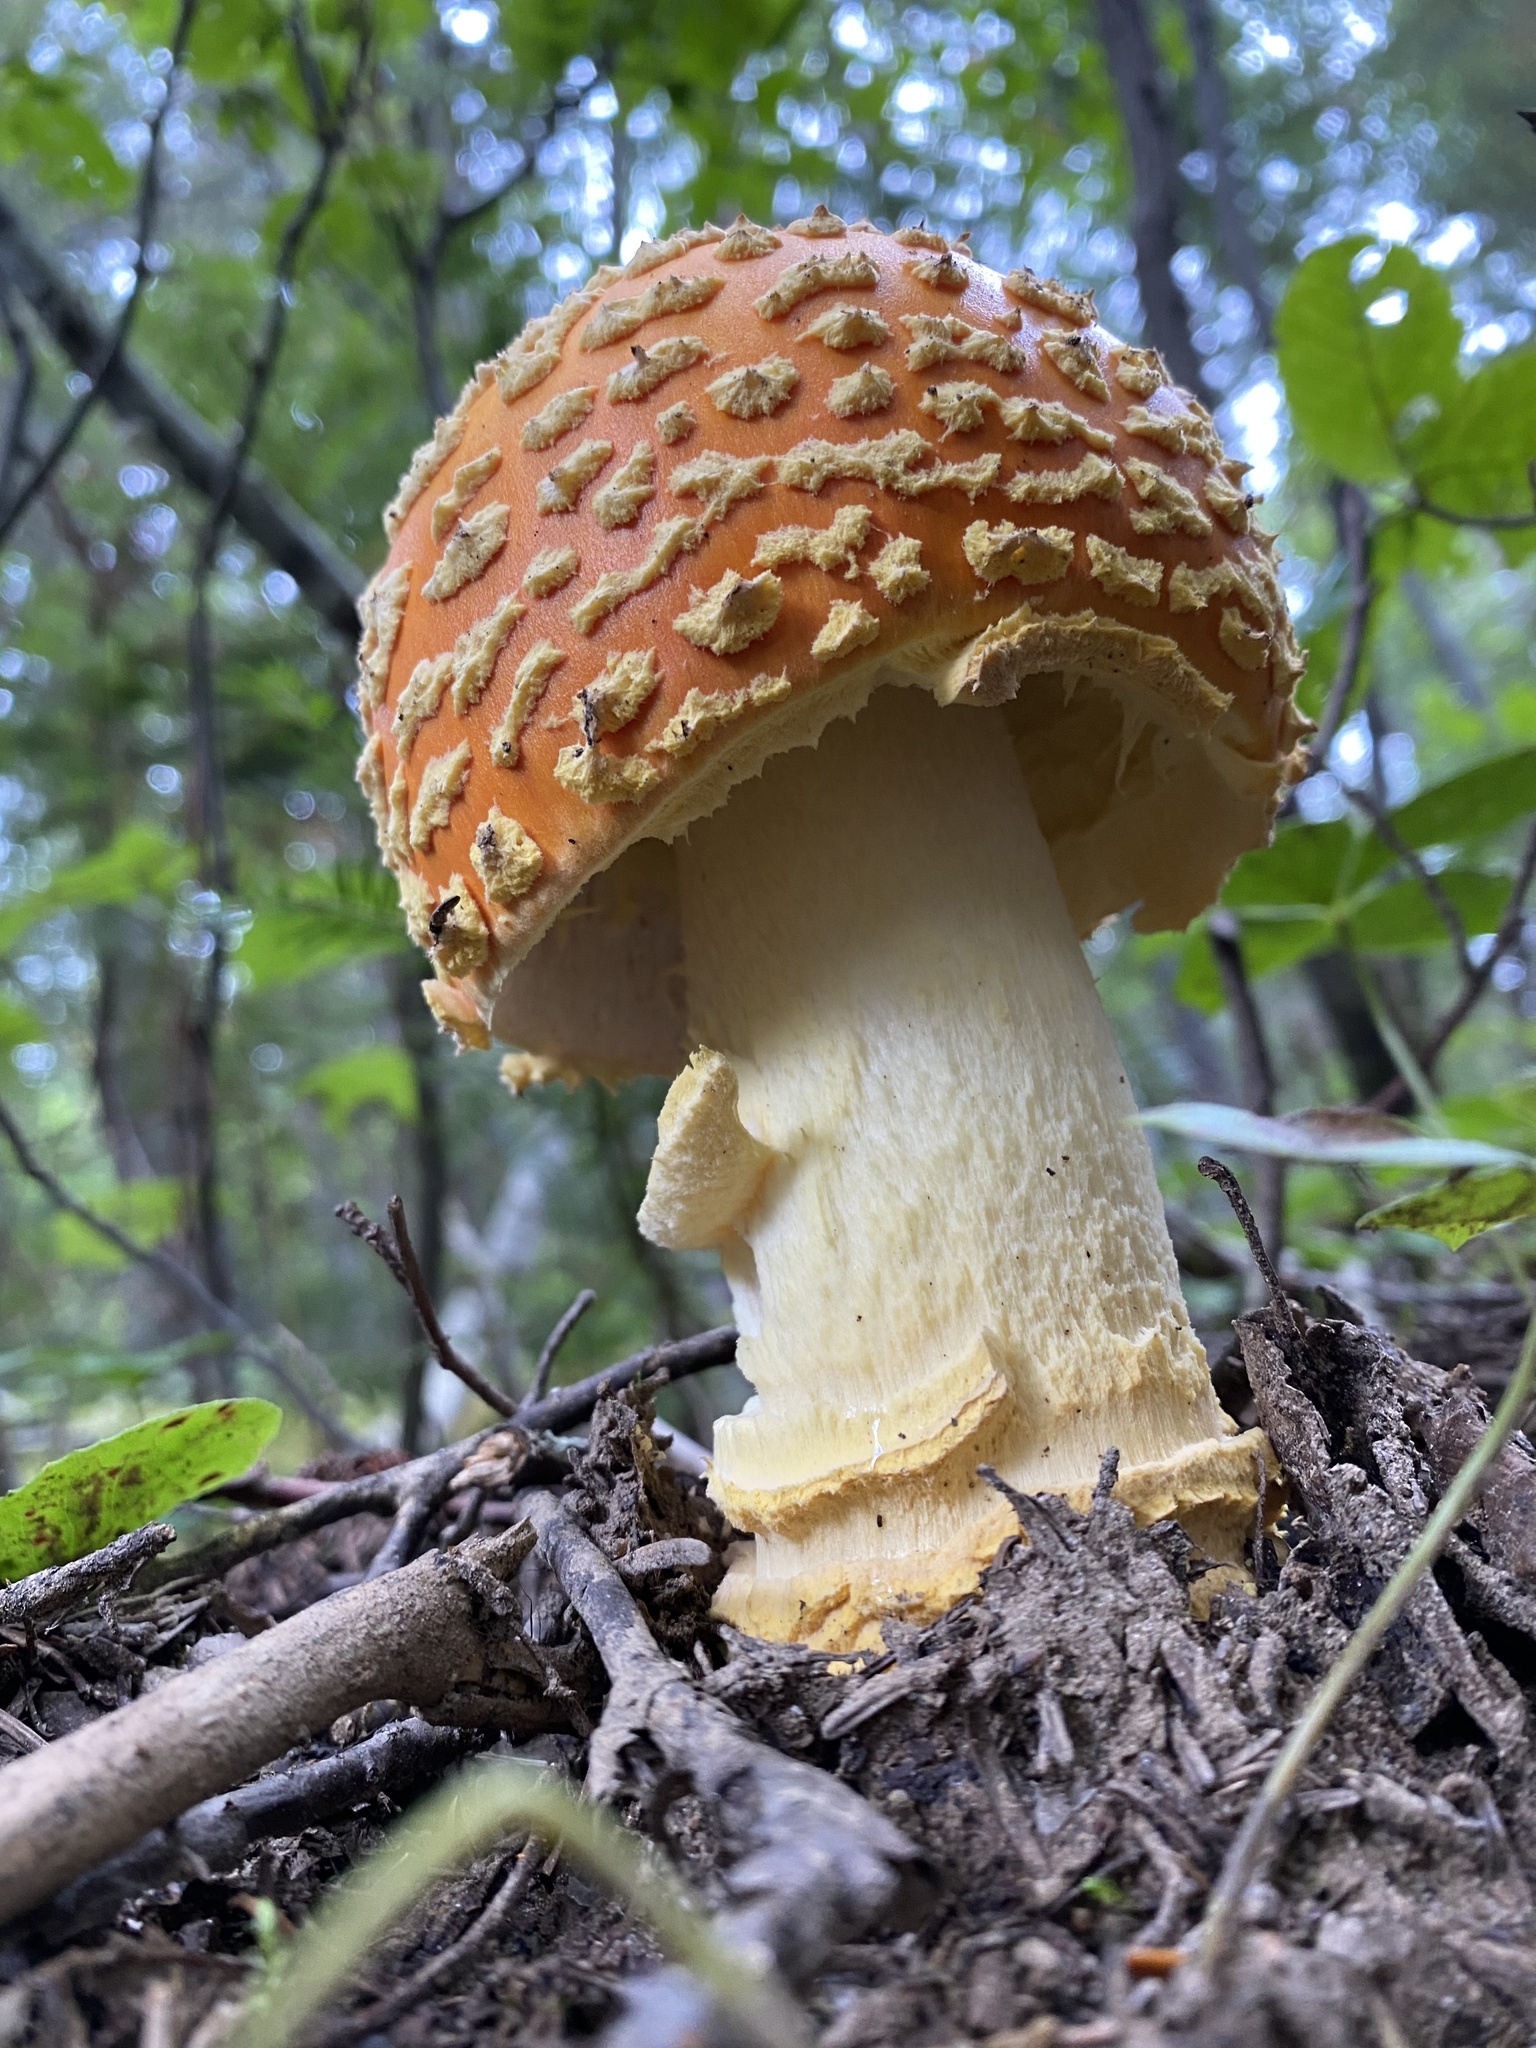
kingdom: Fungi
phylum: Basidiomycota
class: Agaricomycetes
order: Agaricales
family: Amanitaceae
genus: Amanita
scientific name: Amanita muscaria
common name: Fly agaric
